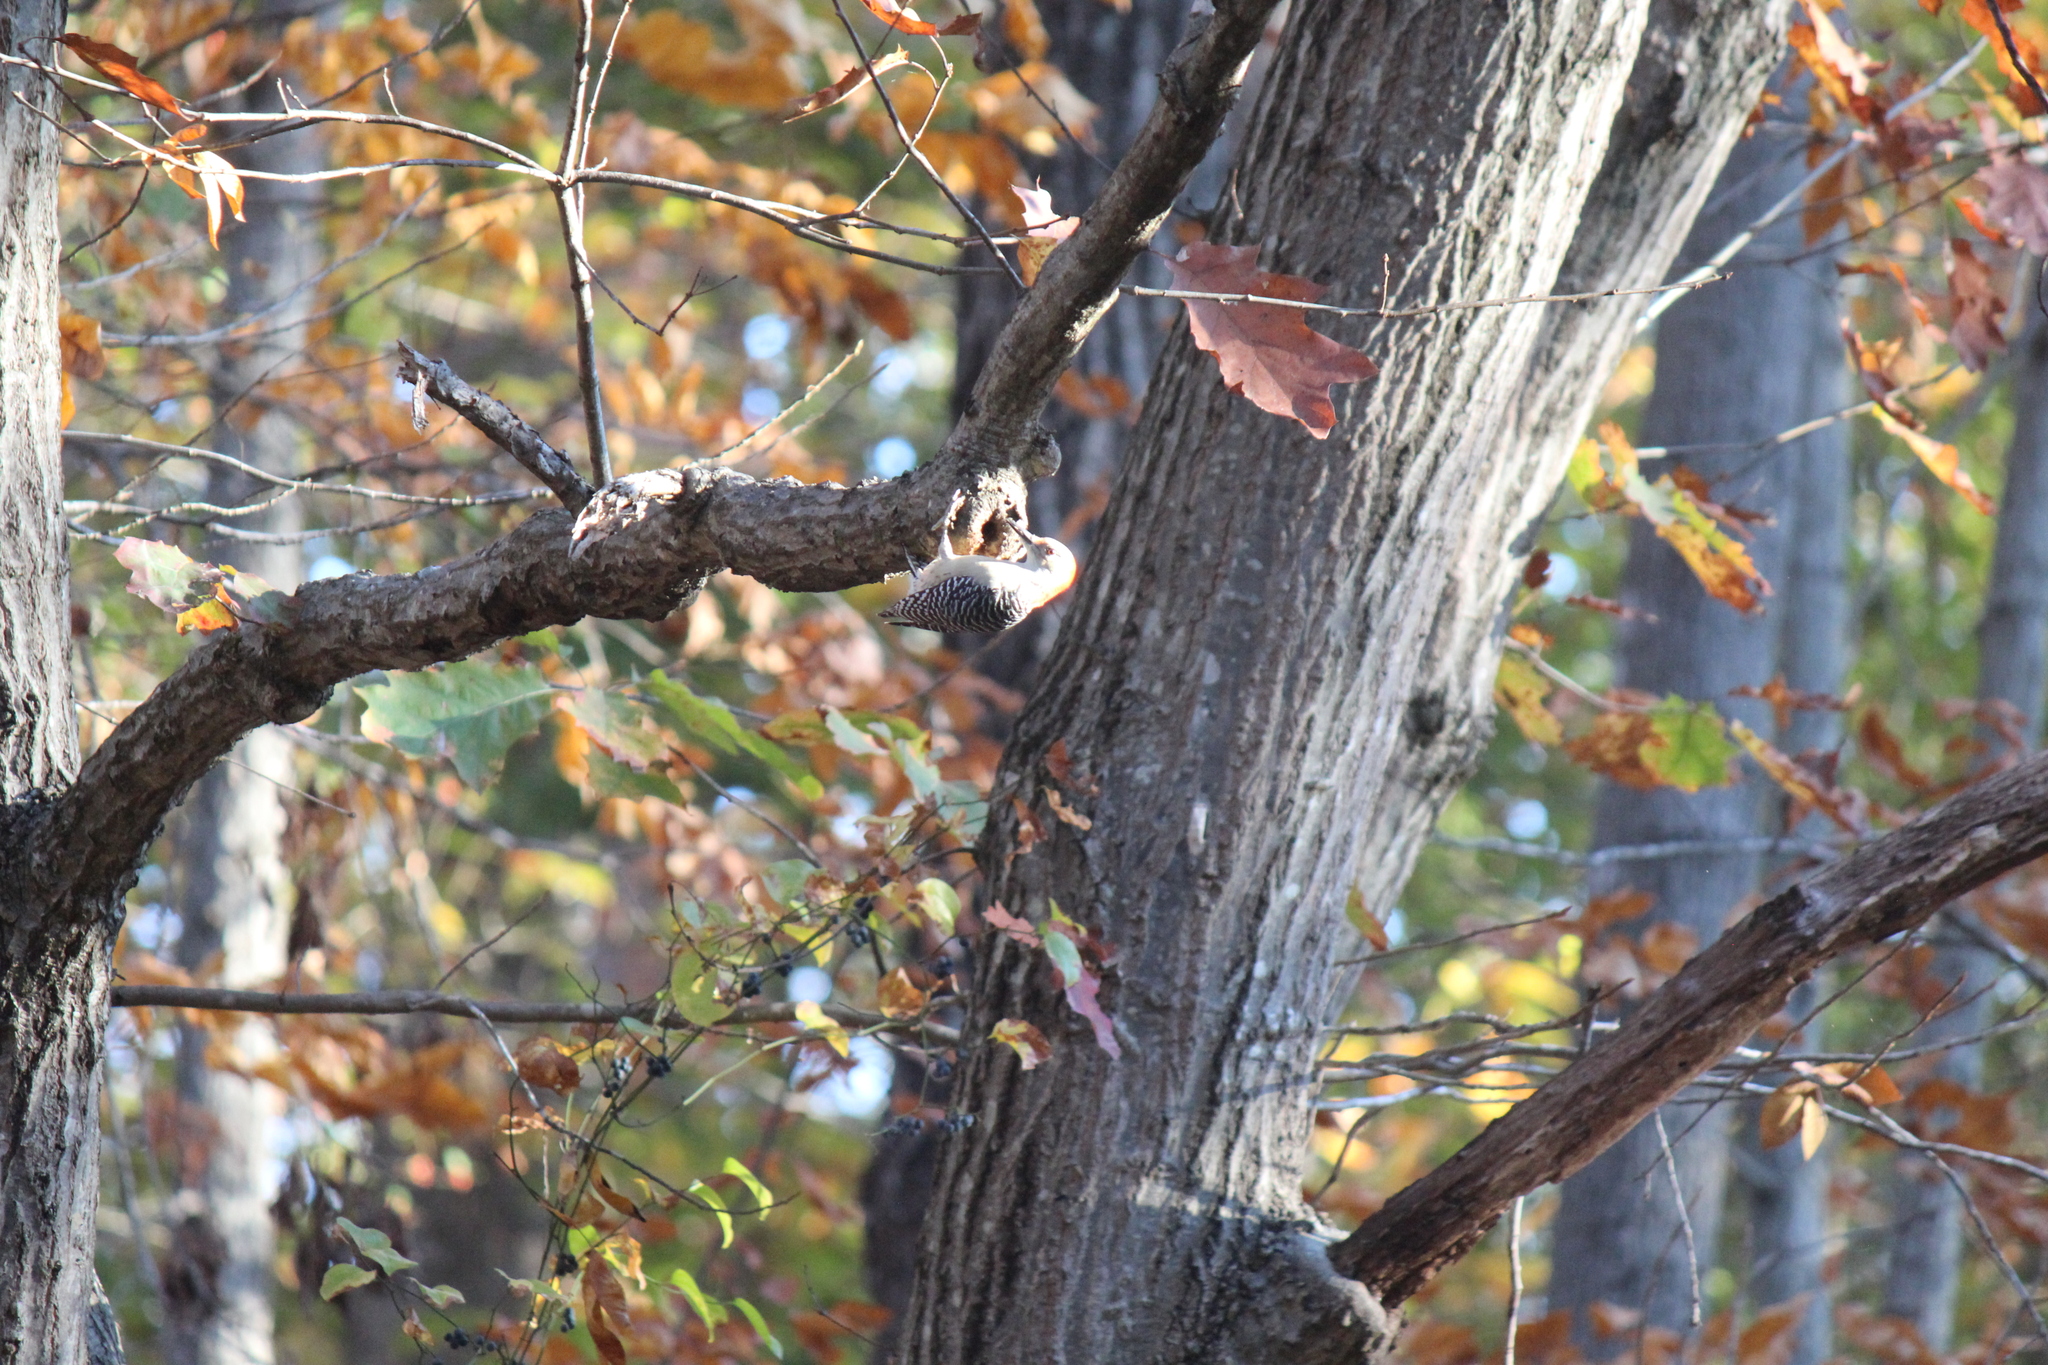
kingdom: Animalia
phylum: Chordata
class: Aves
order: Piciformes
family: Picidae
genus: Melanerpes
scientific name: Melanerpes carolinus
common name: Red-bellied woodpecker
